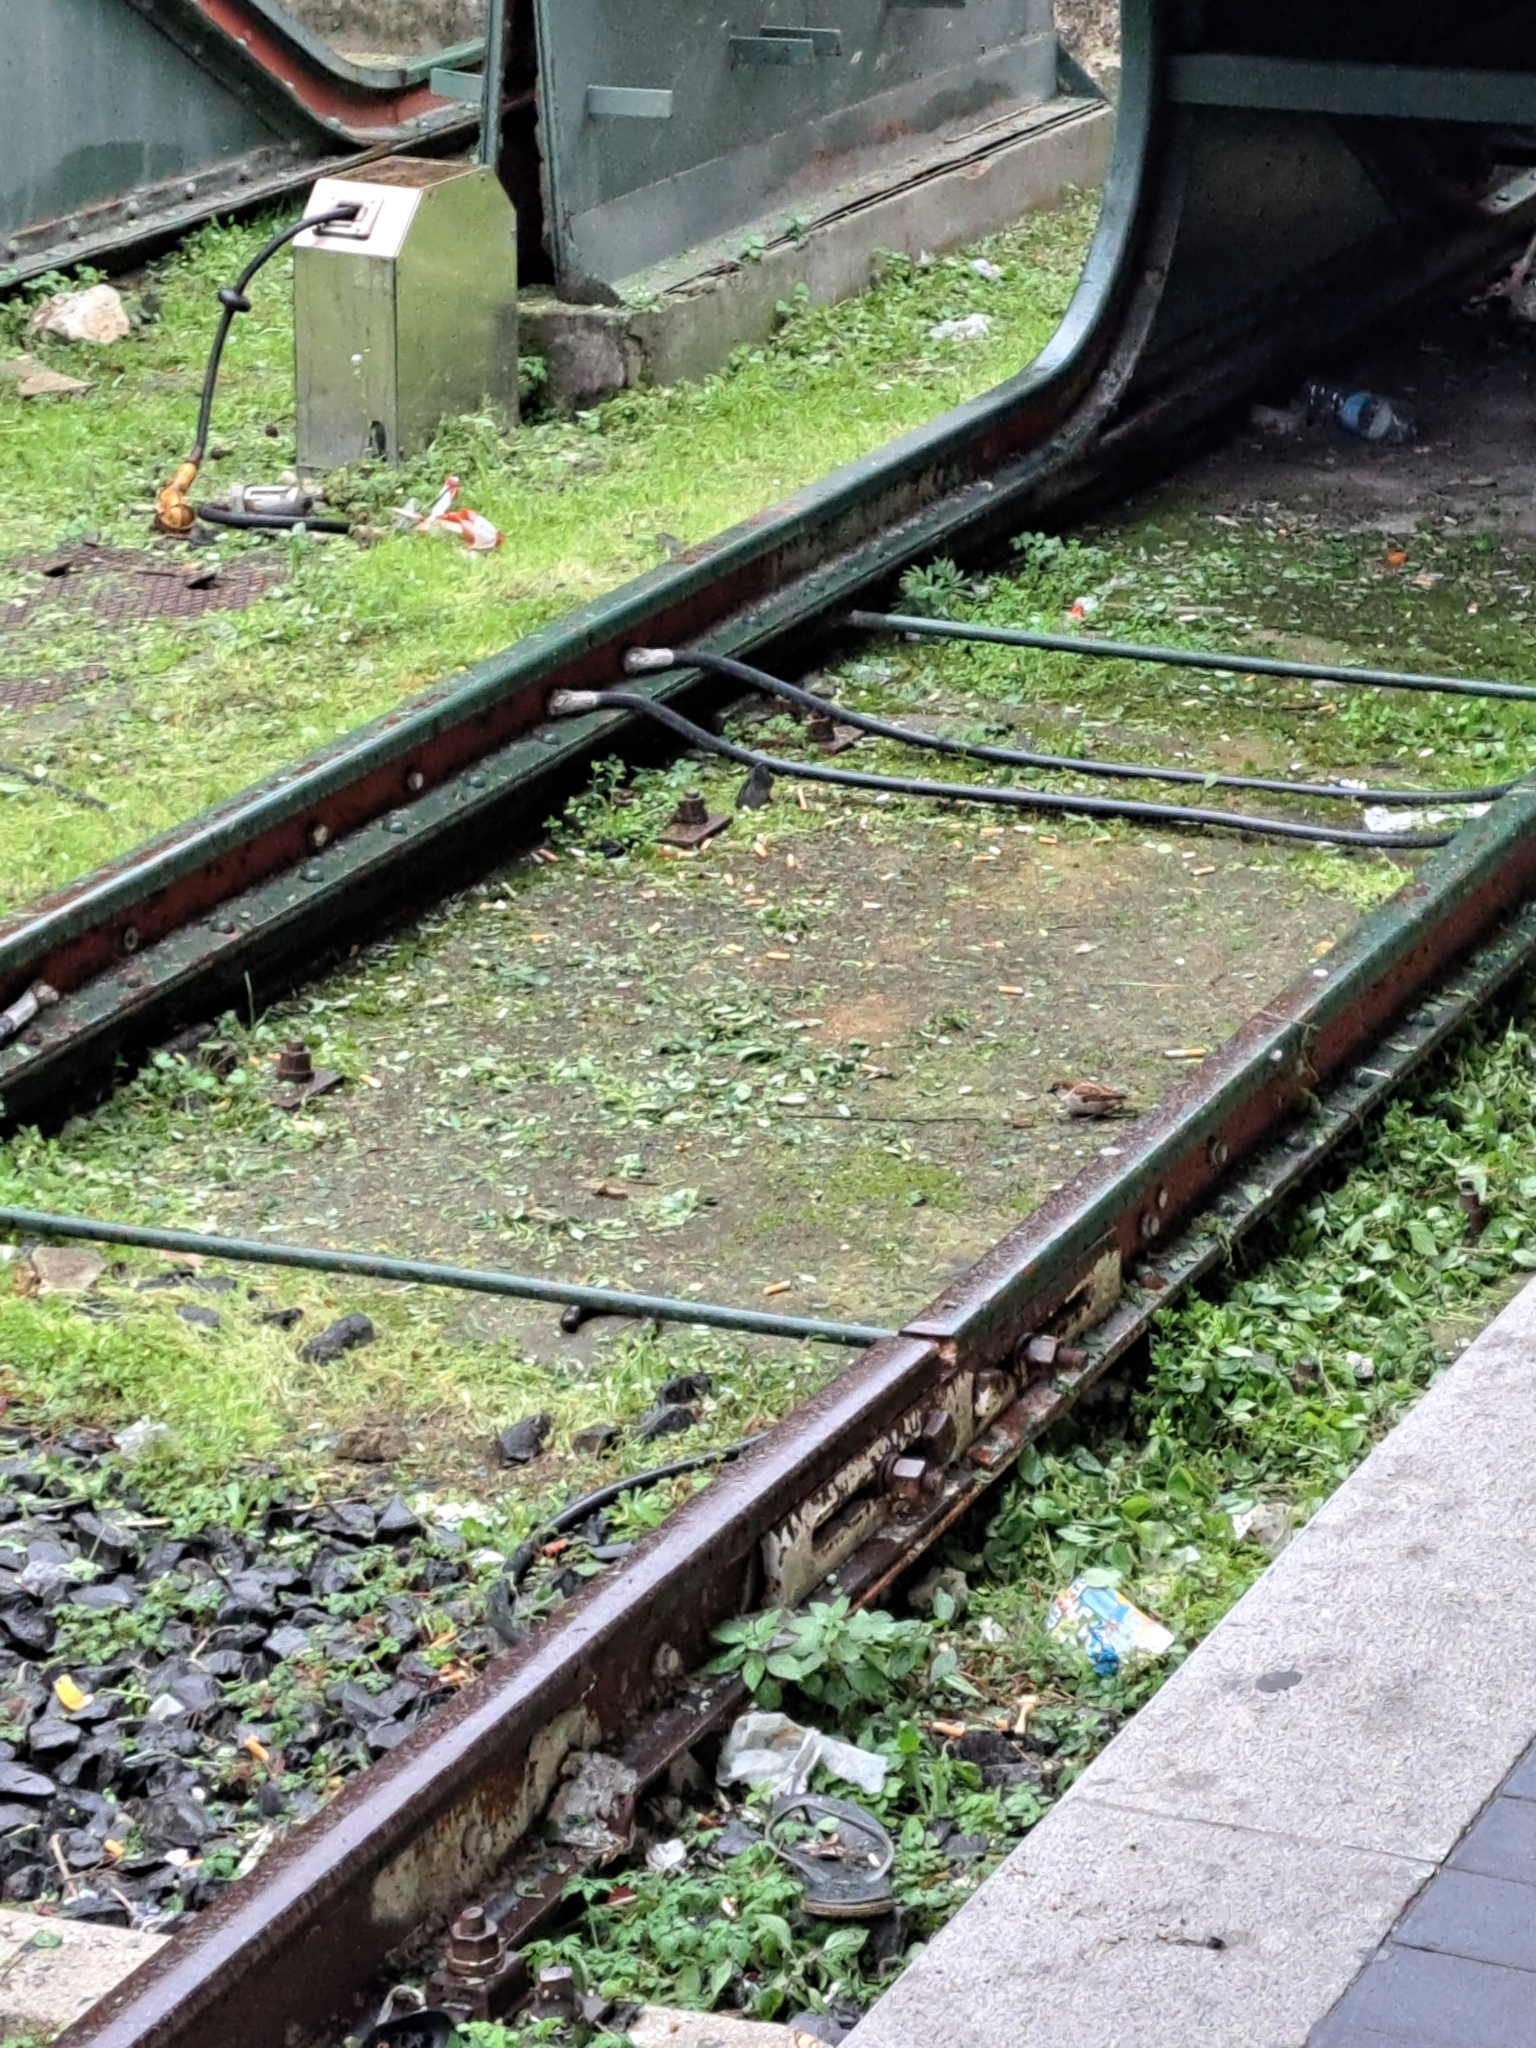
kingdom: Animalia
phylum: Chordata
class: Aves
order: Passeriformes
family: Passeridae
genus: Passer
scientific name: Passer italiae
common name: Italian sparrow
